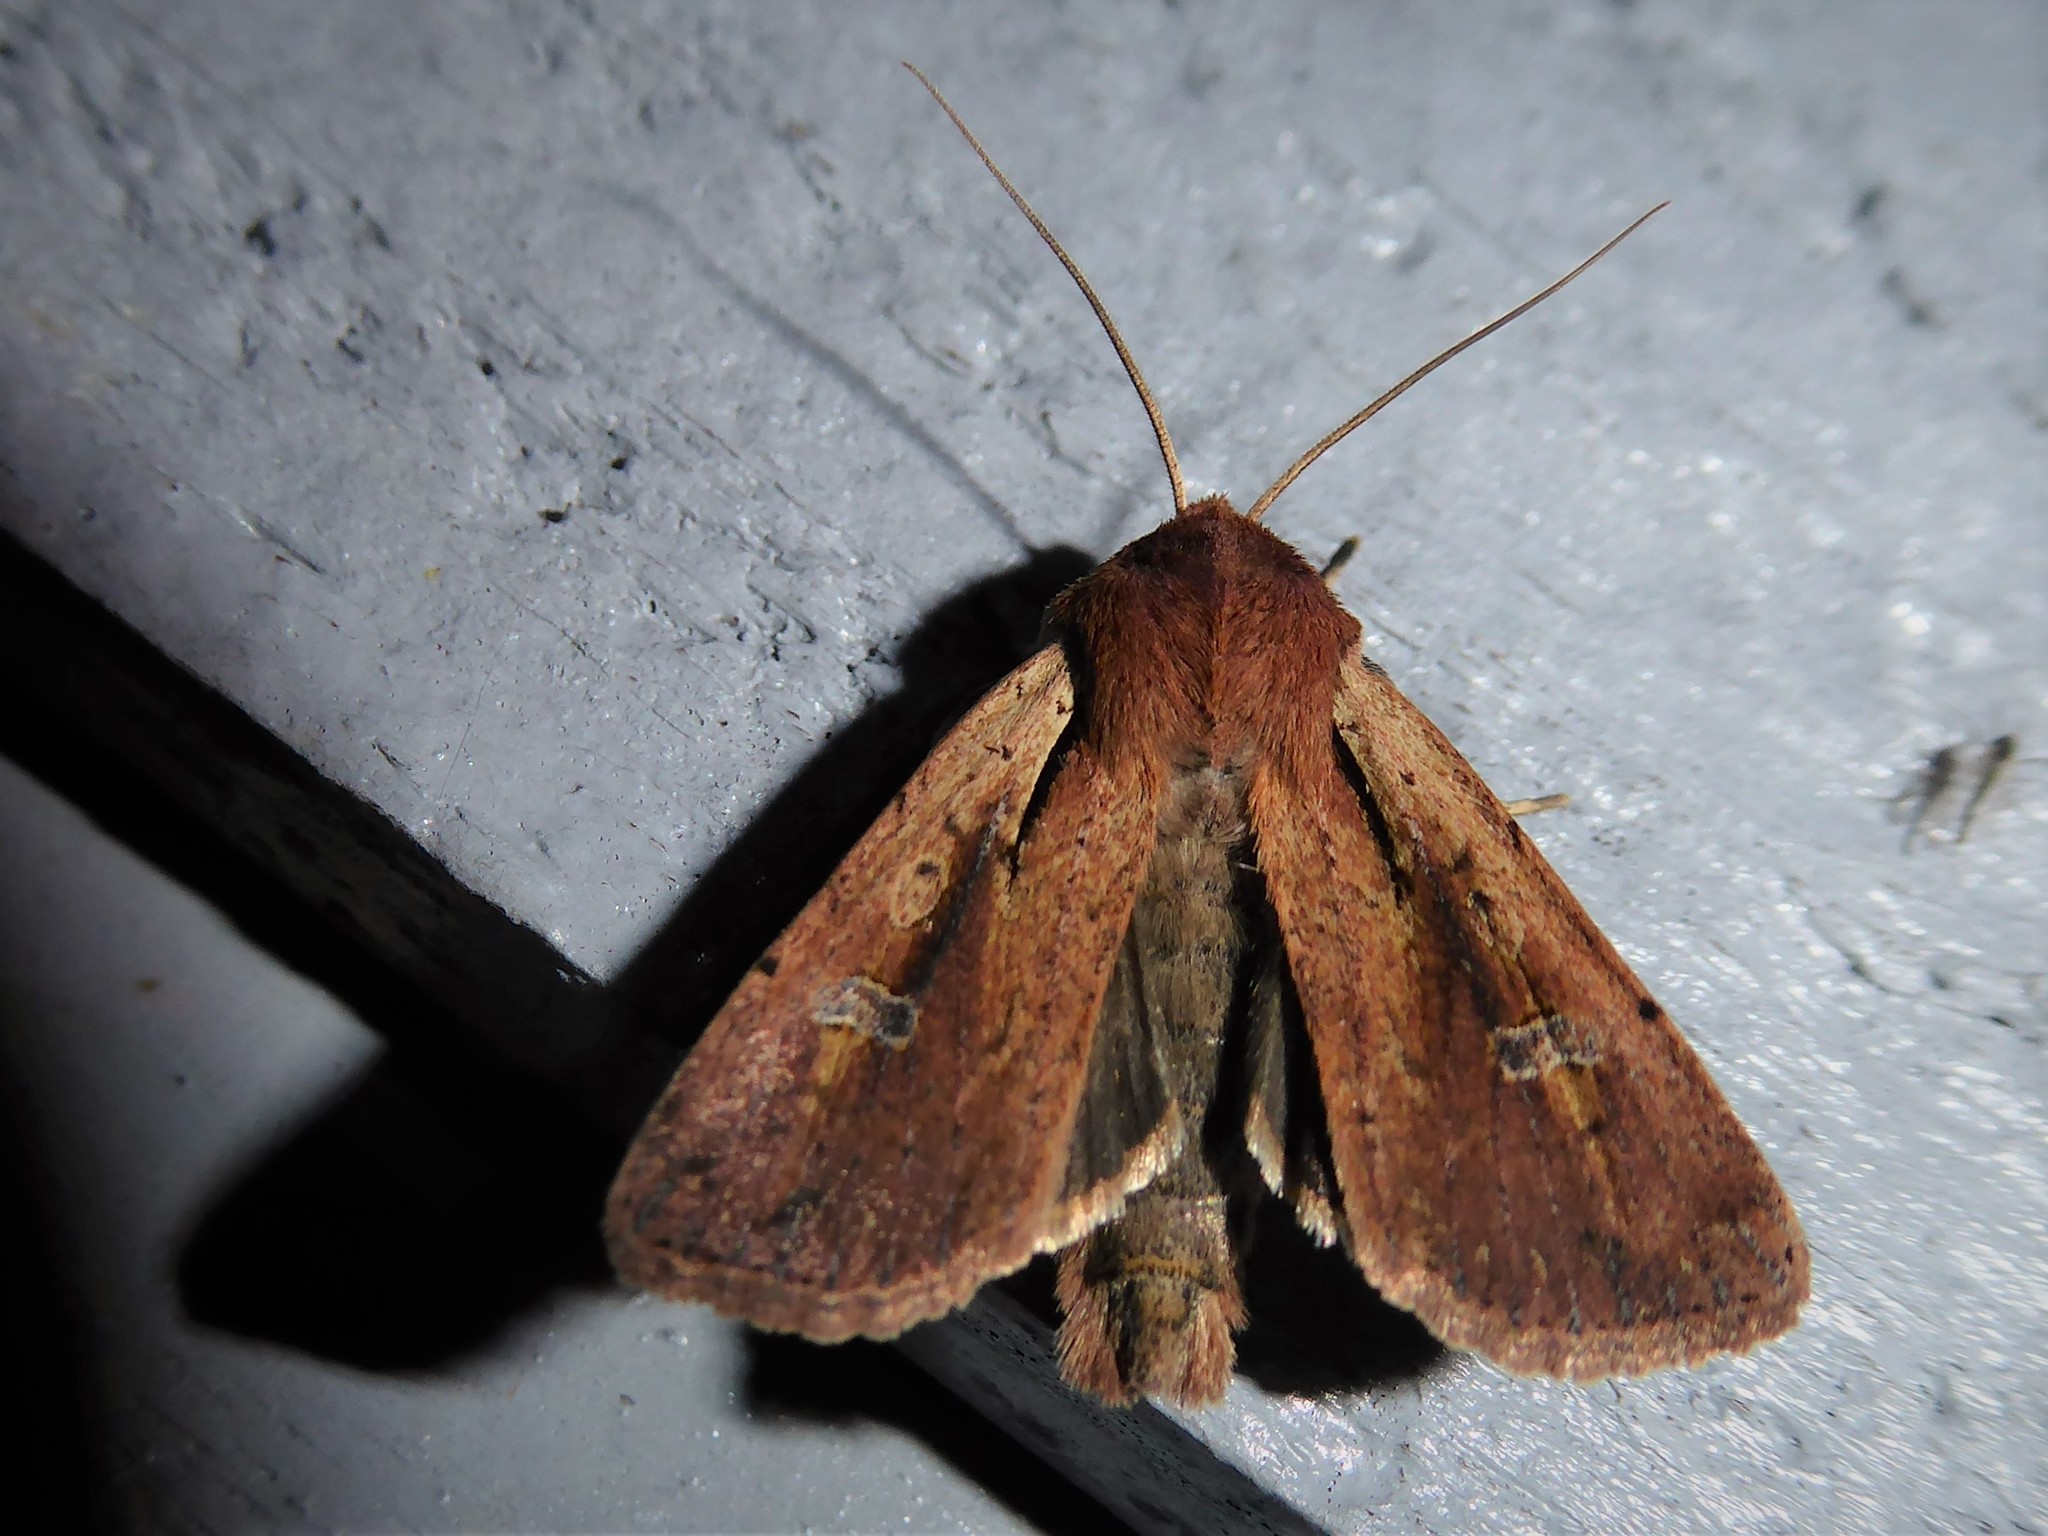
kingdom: Animalia
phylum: Arthropoda
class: Insecta
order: Lepidoptera
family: Noctuidae
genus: Ichneutica
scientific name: Ichneutica atristriga
